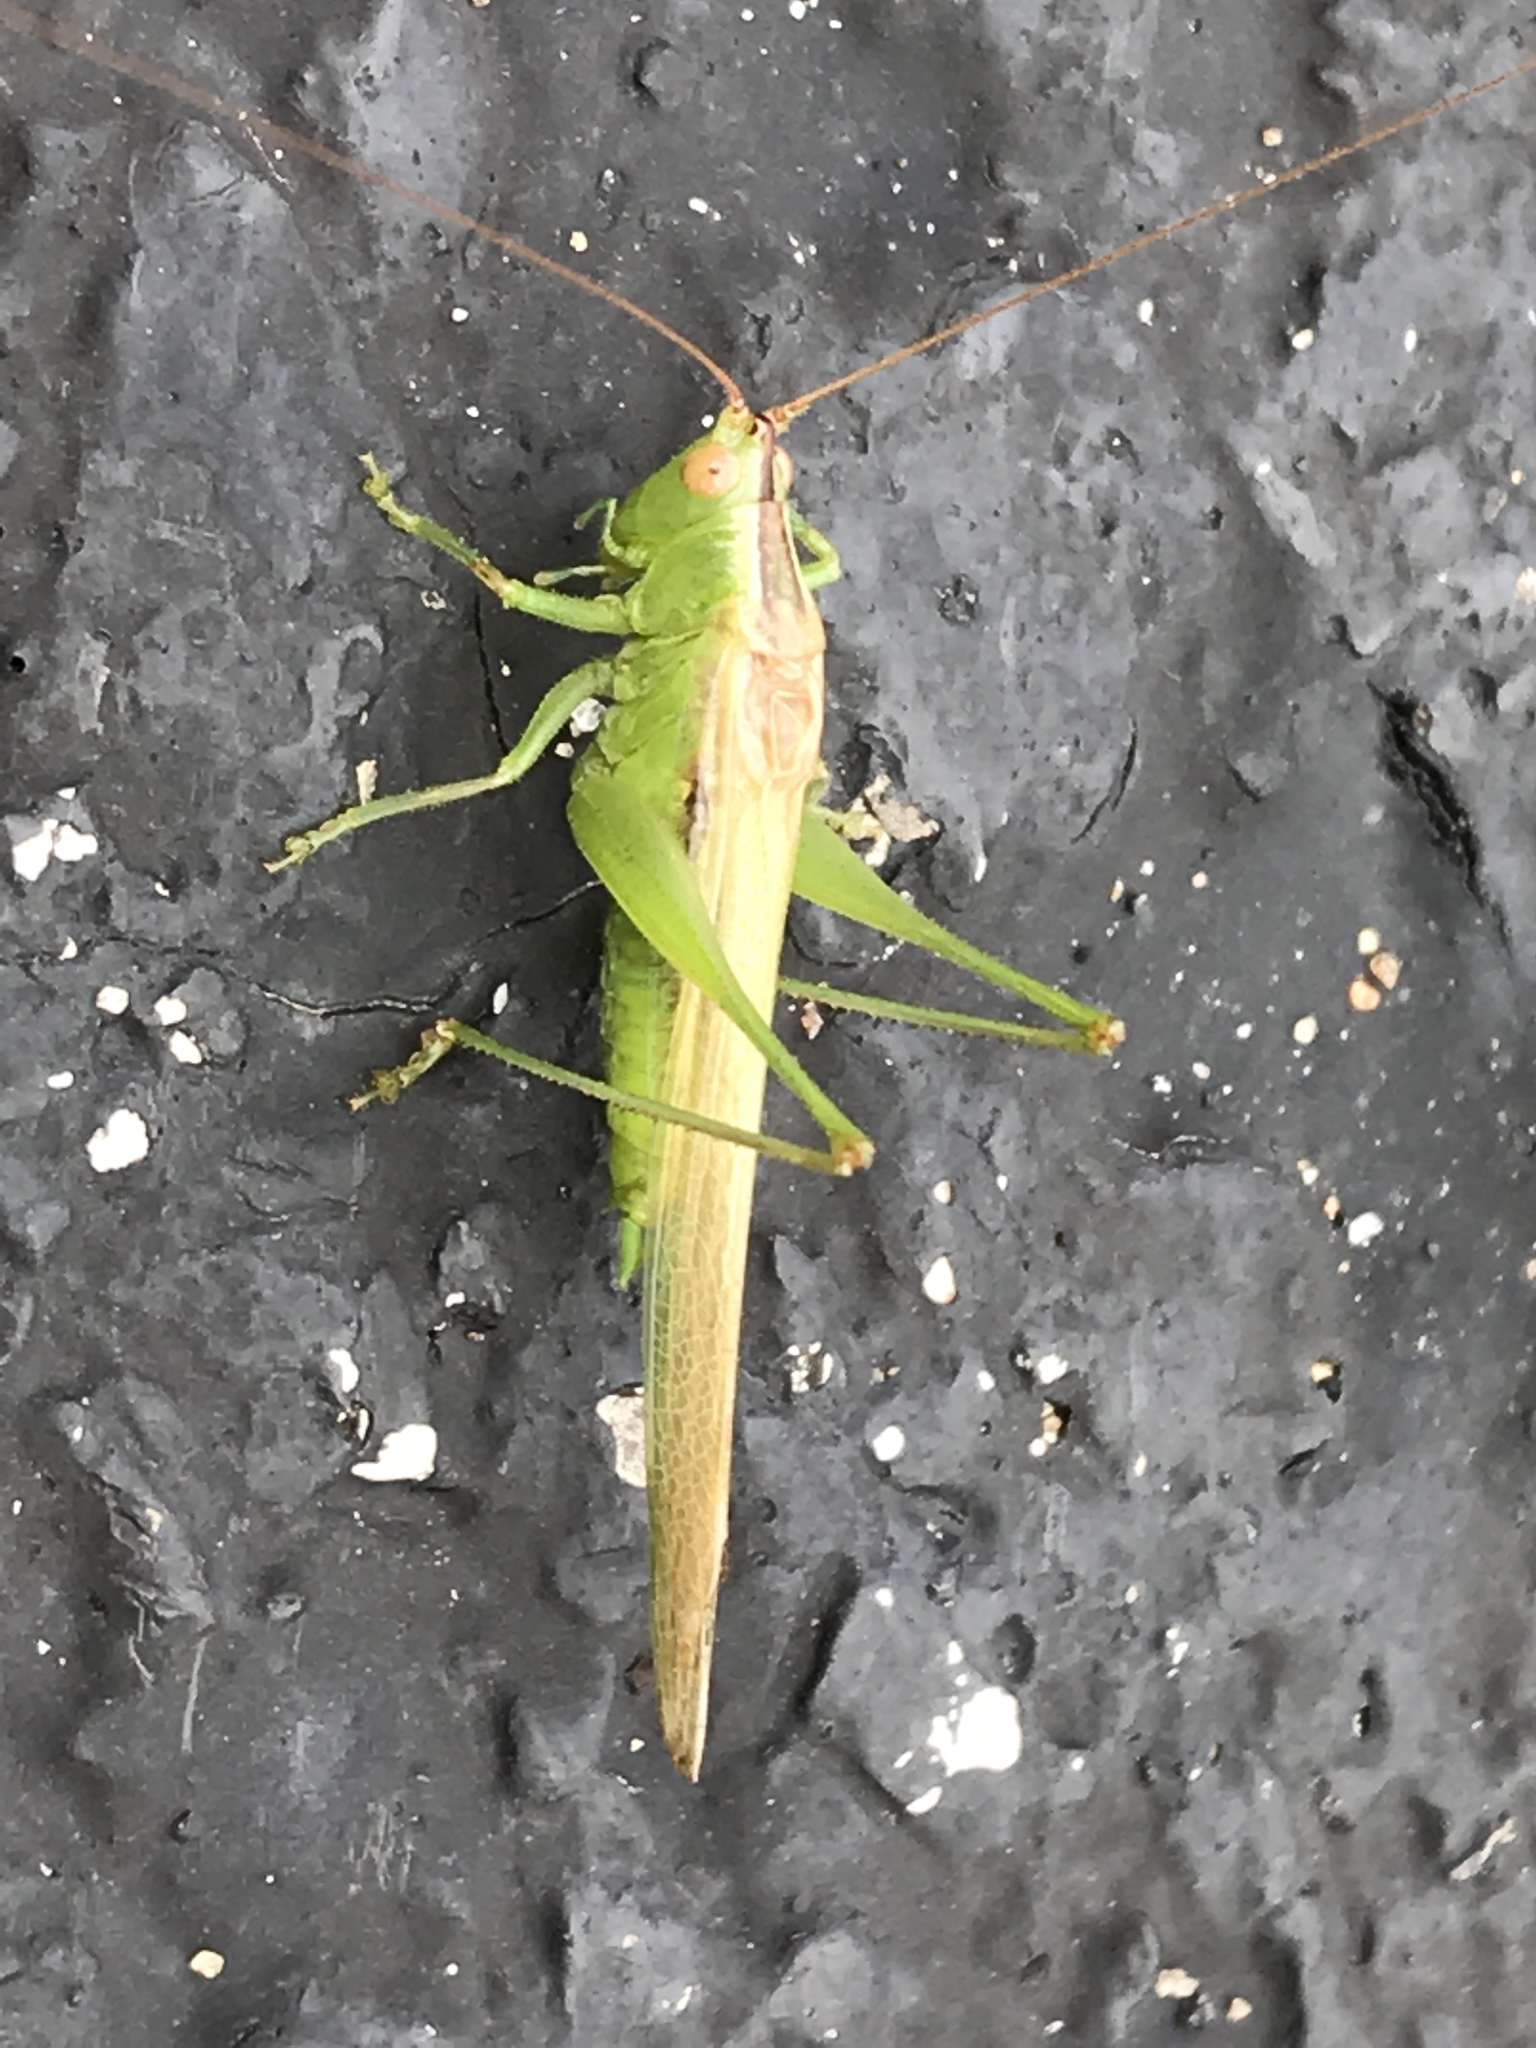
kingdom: Animalia
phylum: Arthropoda
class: Insecta
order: Orthoptera
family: Tettigoniidae
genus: Conocephalus
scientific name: Conocephalus fasciatus
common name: Slender meadow katydid
